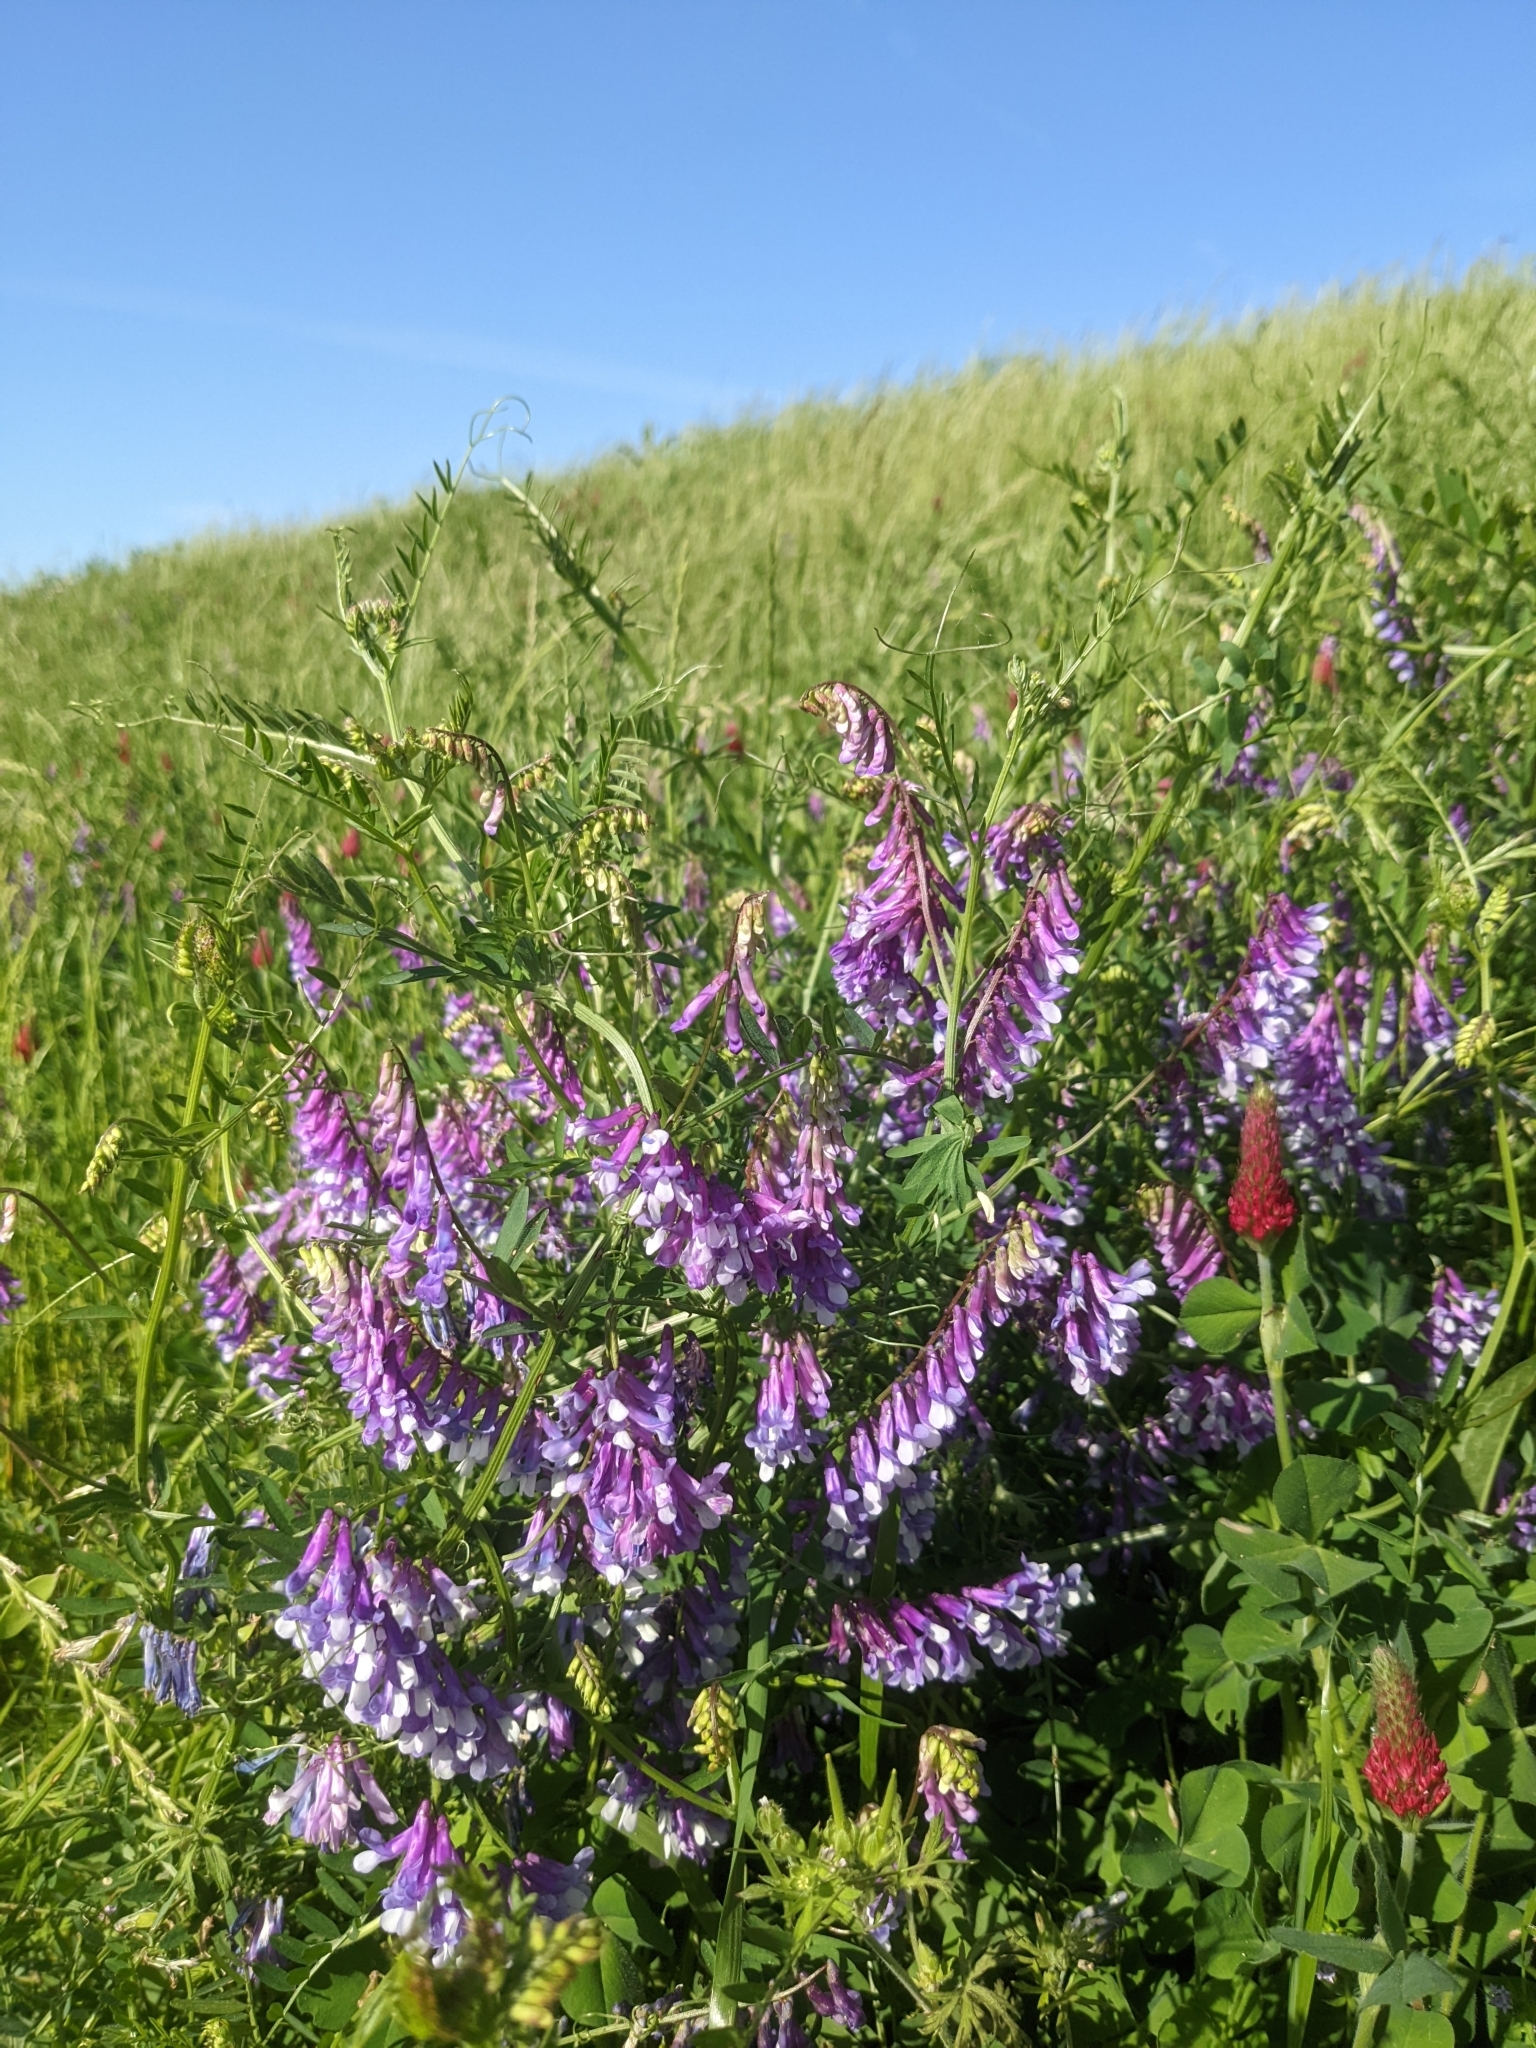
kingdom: Plantae
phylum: Tracheophyta
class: Magnoliopsida
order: Fabales
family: Fabaceae
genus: Vicia
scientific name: Vicia villosa
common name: Fodder vetch
